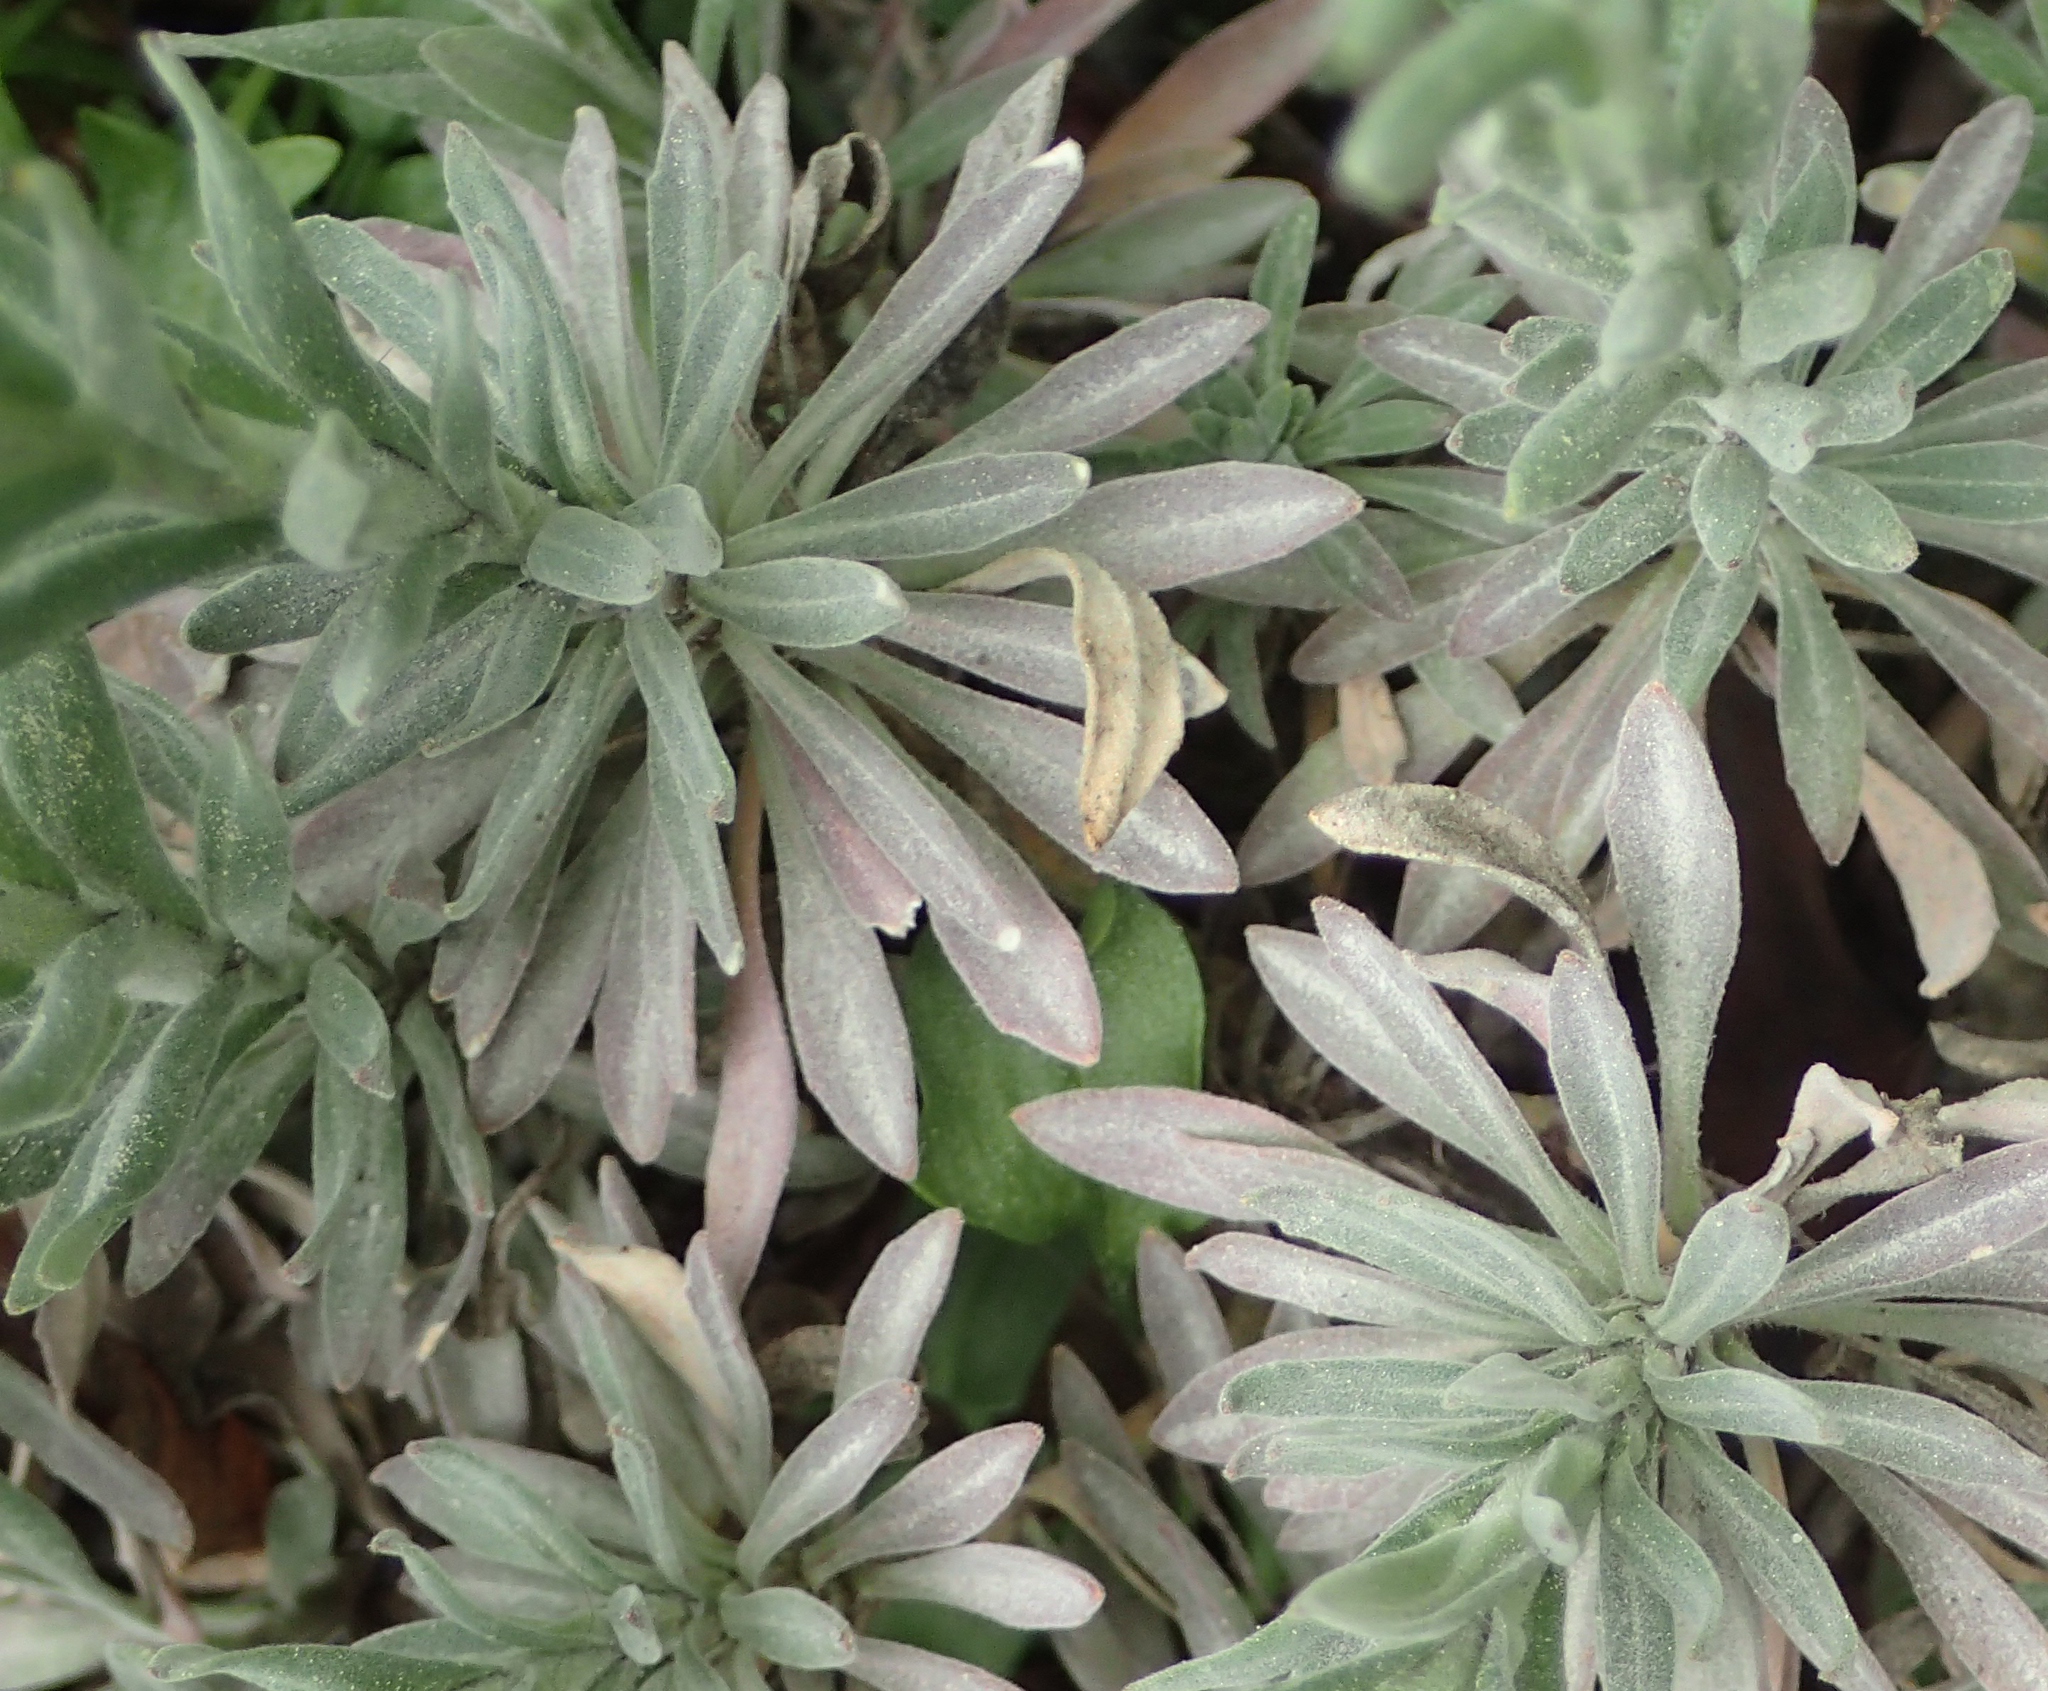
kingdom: Plantae
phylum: Tracheophyta
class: Magnoliopsida
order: Fabales
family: Fabaceae
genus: Melilotus
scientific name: Melilotus albus
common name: White melilot
